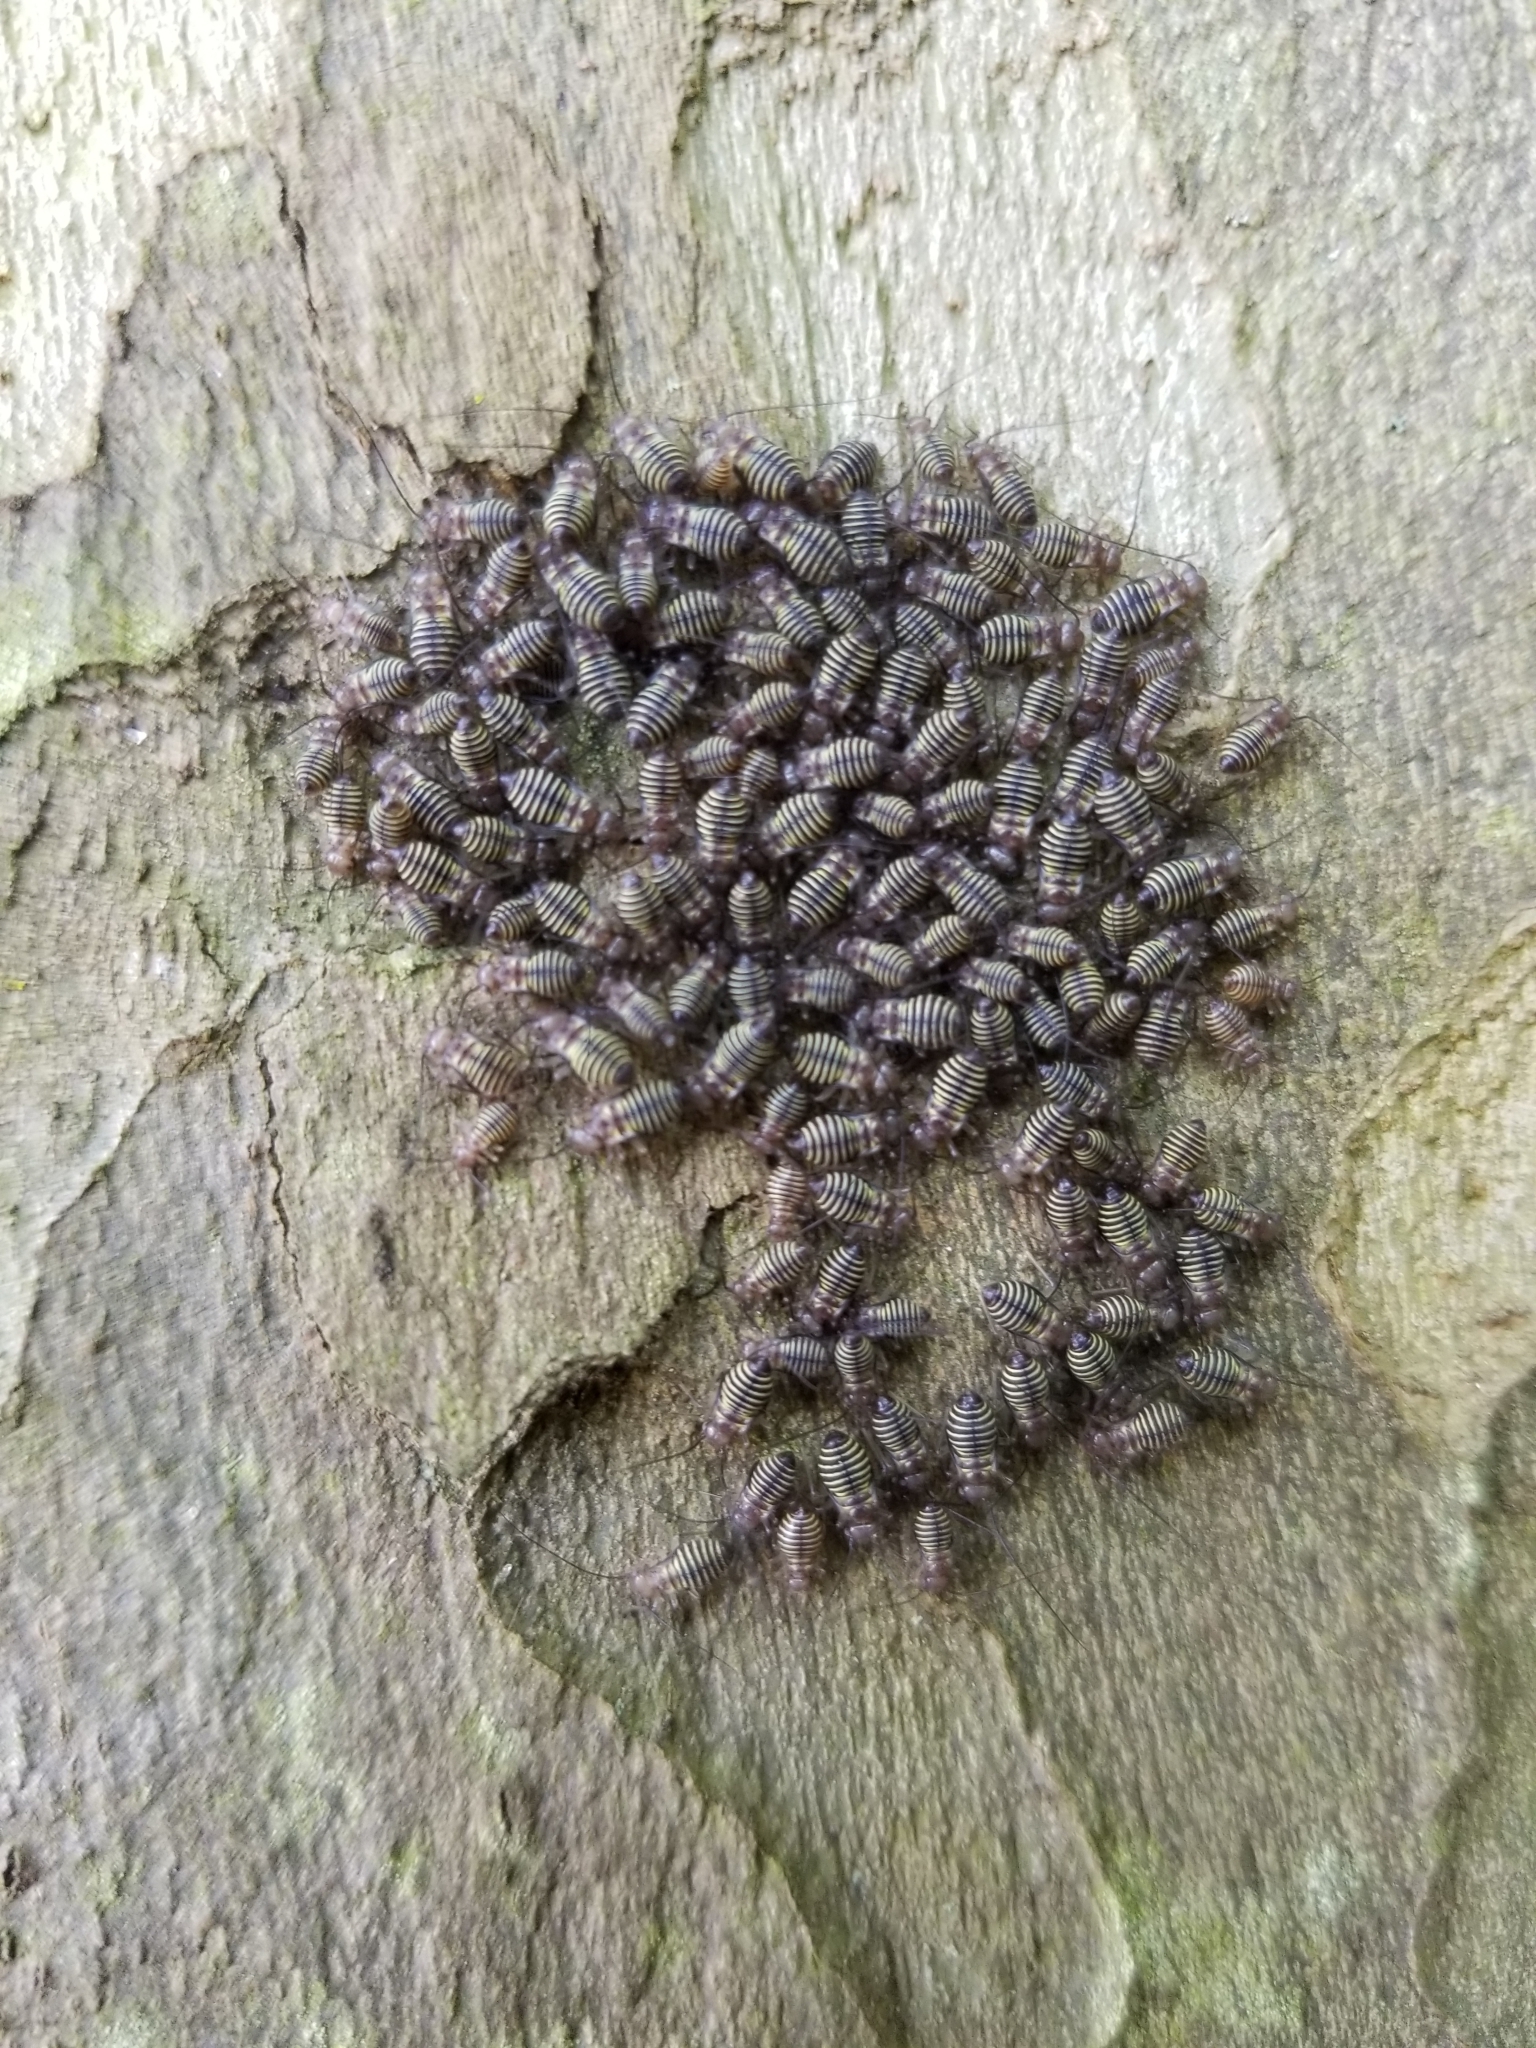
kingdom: Animalia
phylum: Arthropoda
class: Insecta
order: Psocodea
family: Psocidae
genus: Cerastipsocus
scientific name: Cerastipsocus venosus
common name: Tree cattle
